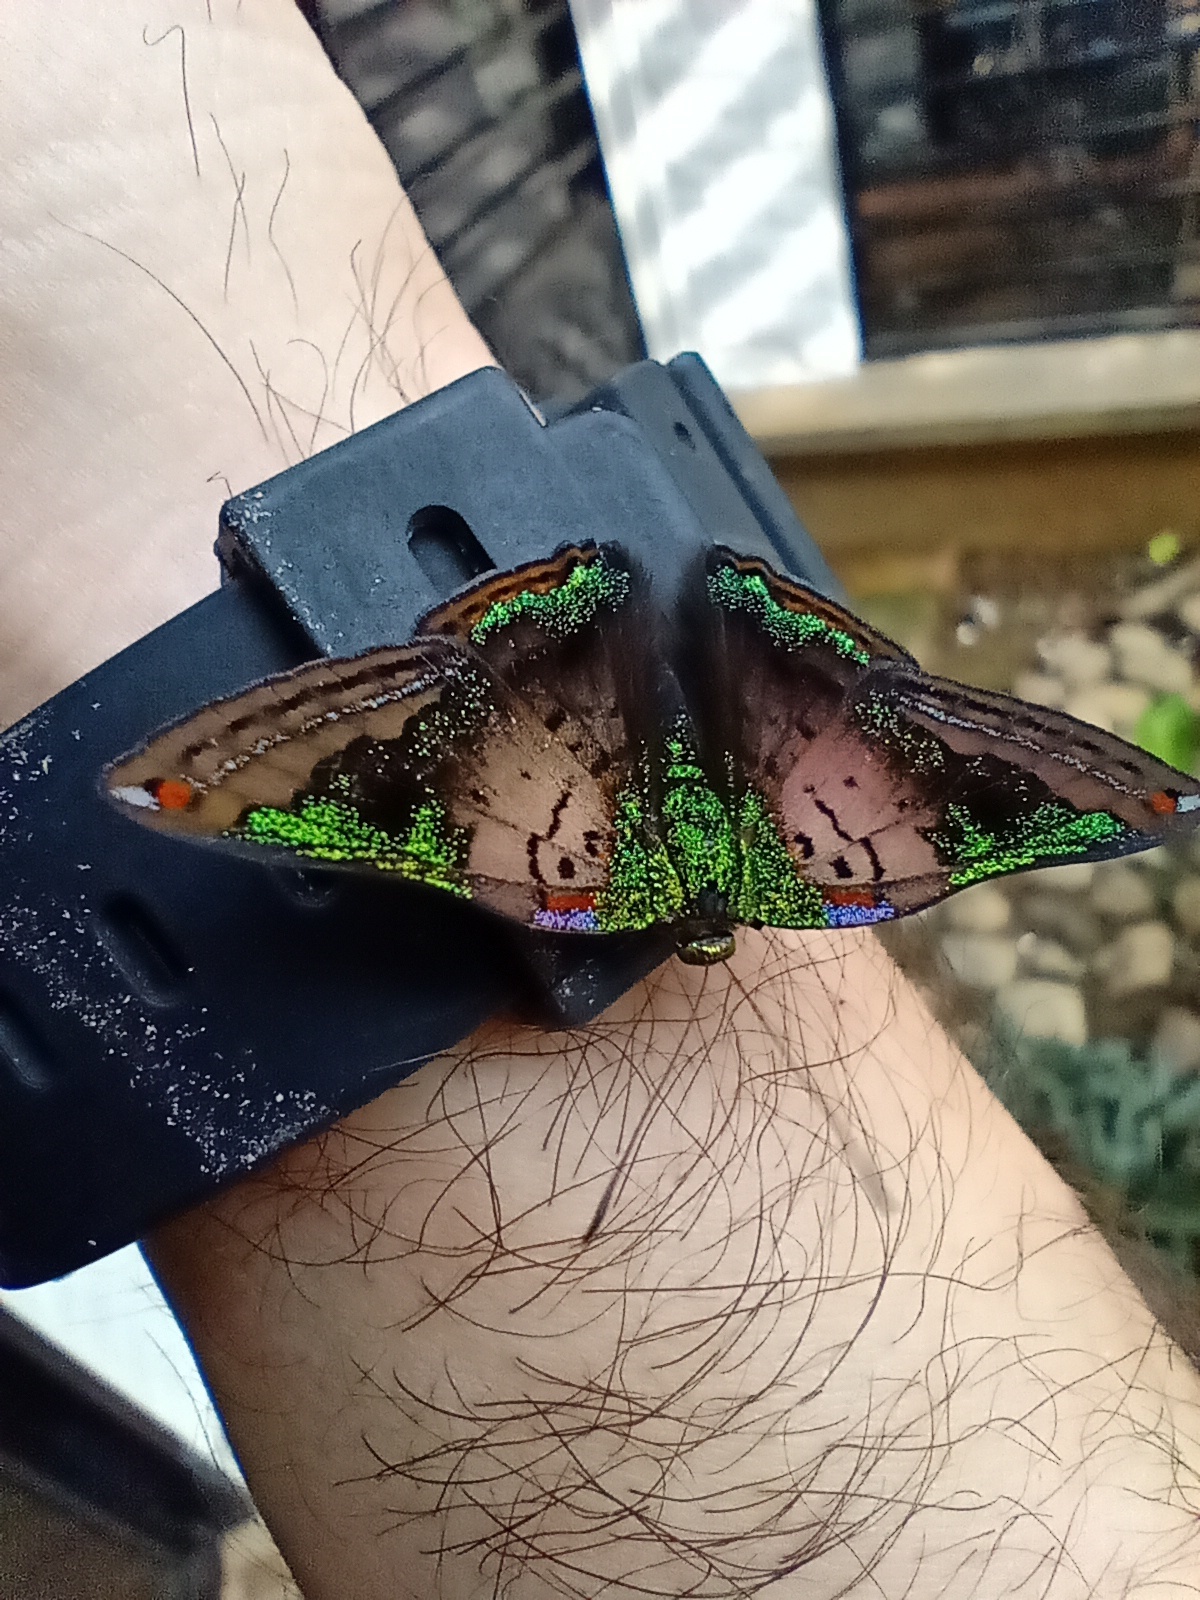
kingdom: Animalia
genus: Caria
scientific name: Caria mantinea
